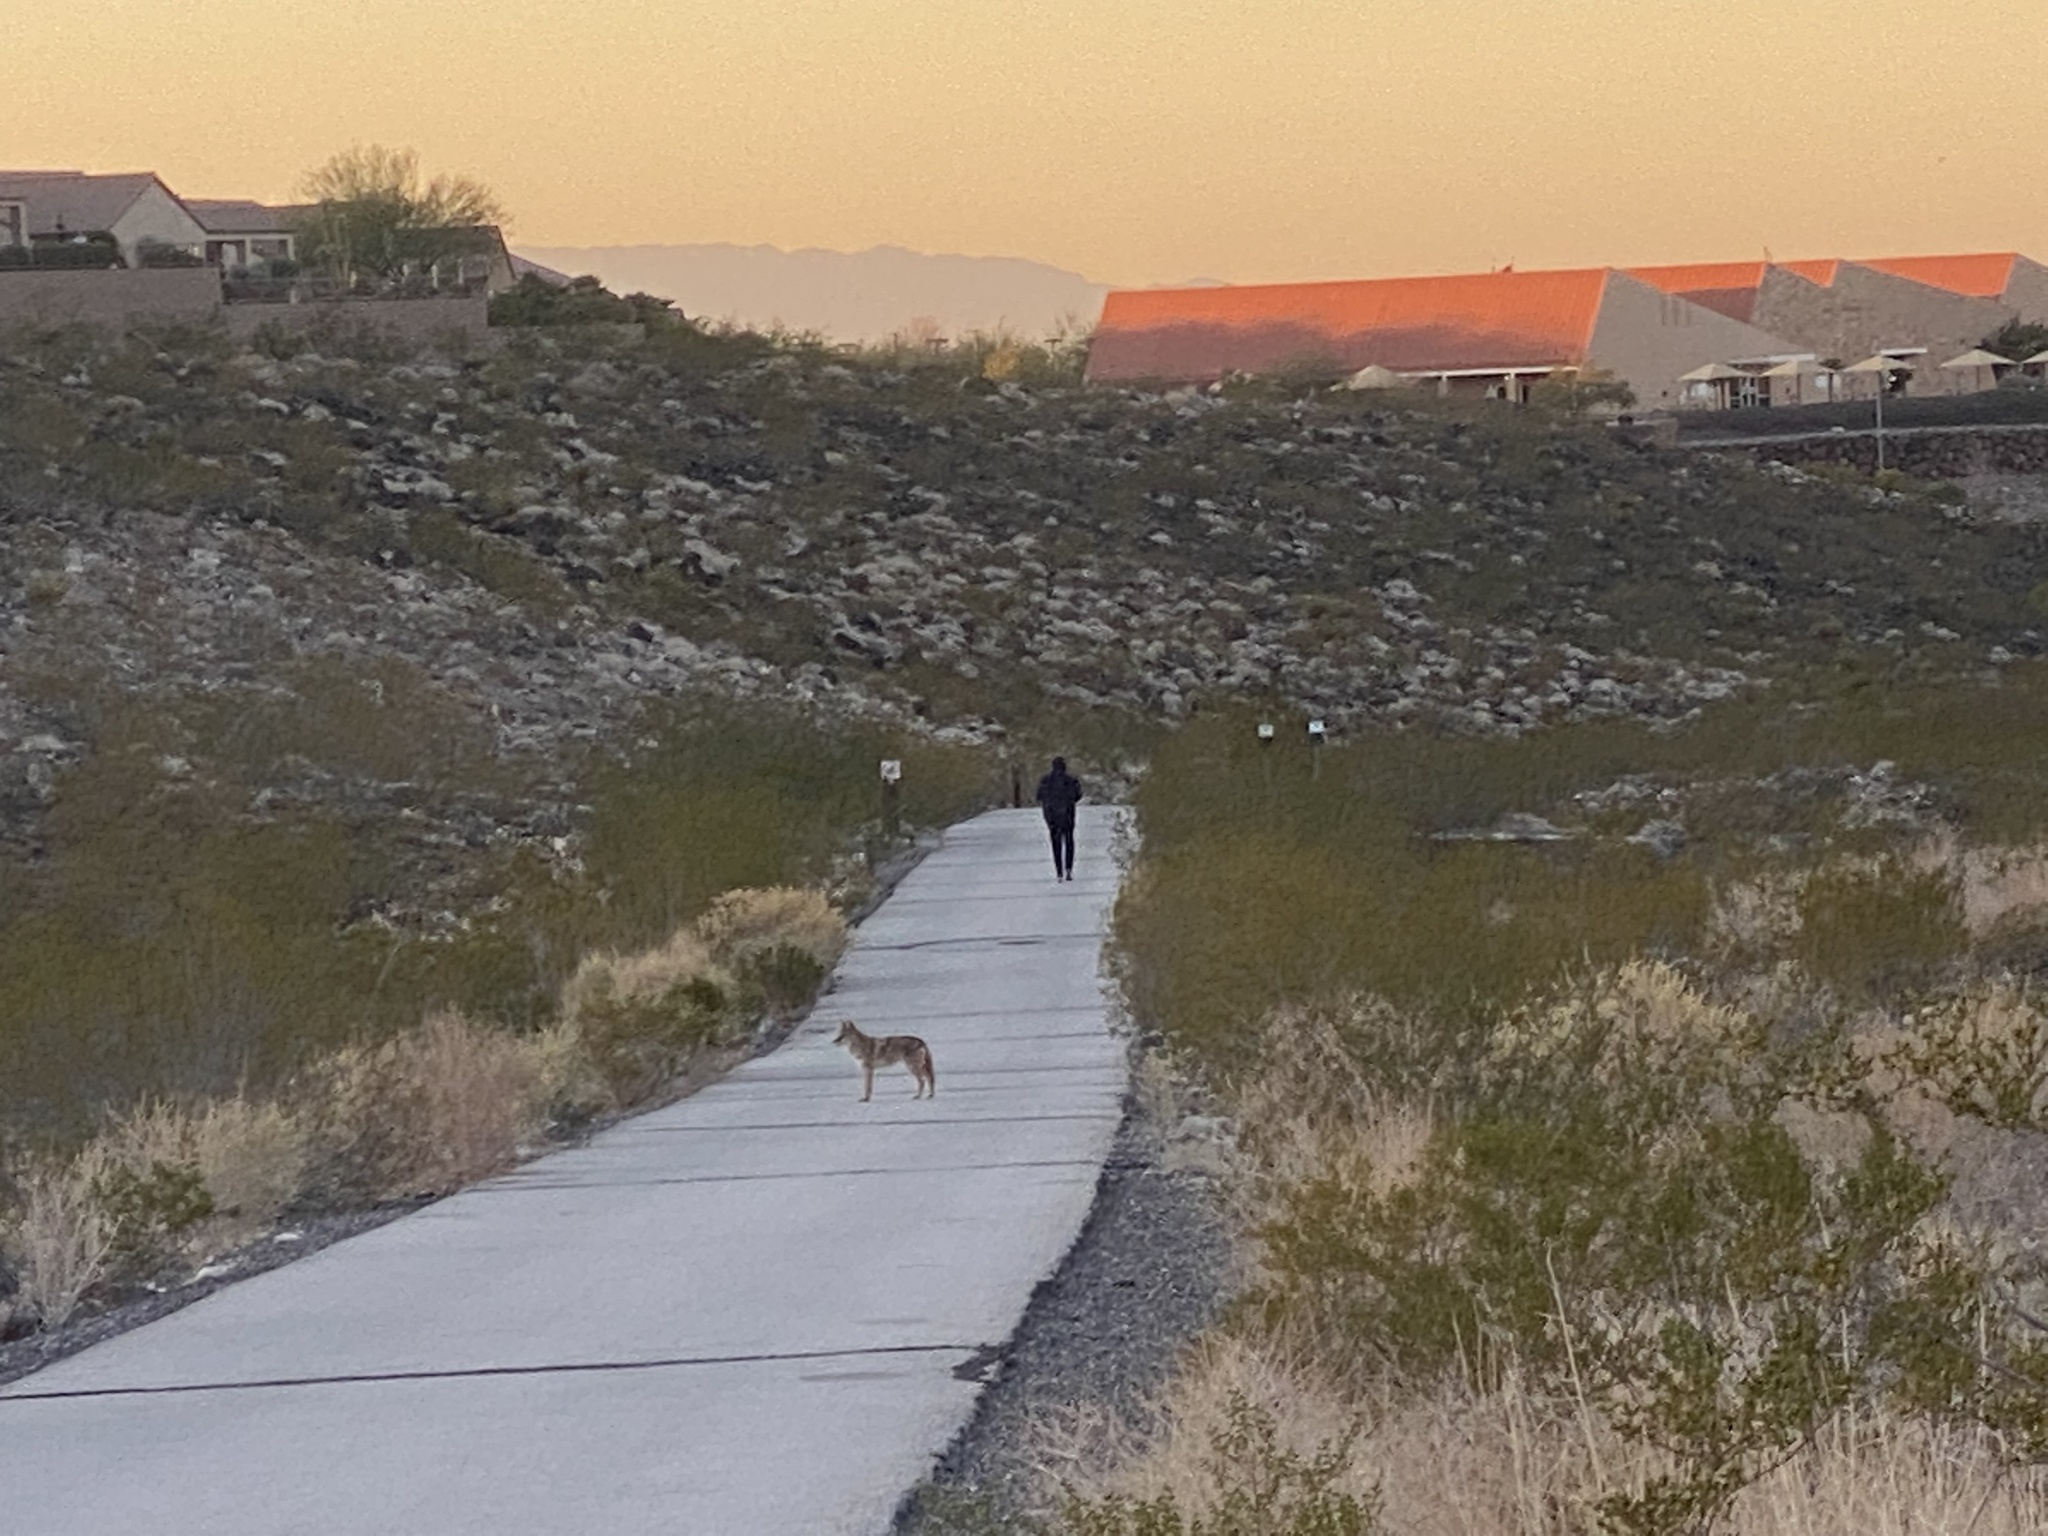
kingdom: Animalia
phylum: Chordata
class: Mammalia
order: Carnivora
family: Canidae
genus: Canis
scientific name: Canis latrans
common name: Coyote
